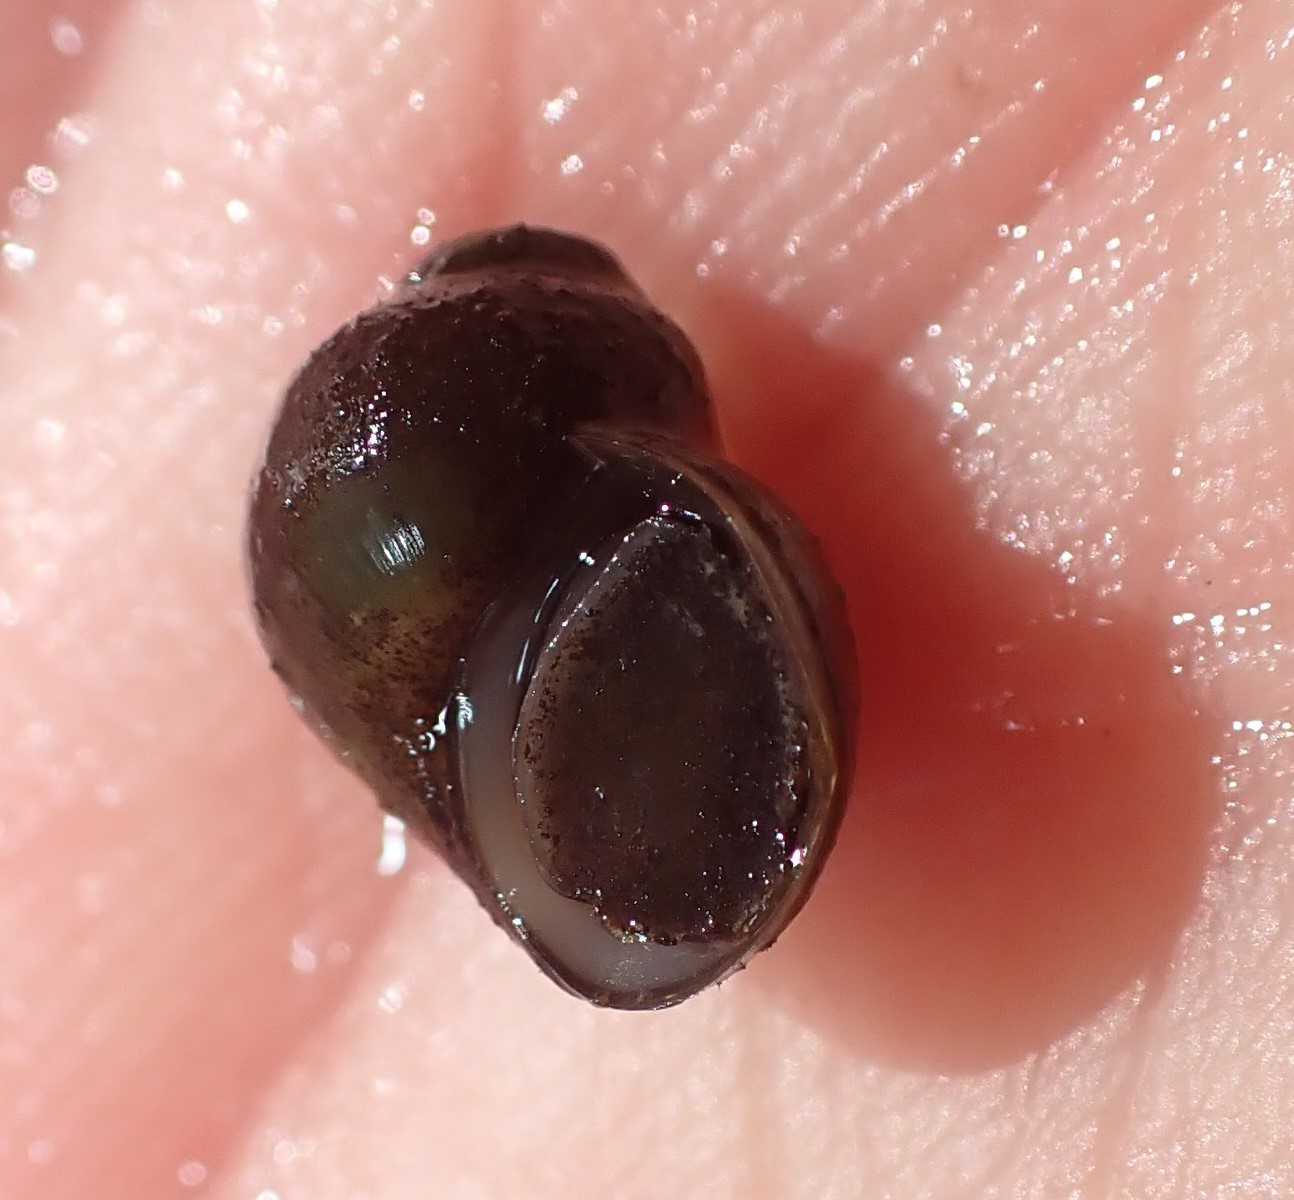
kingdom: Animalia
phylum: Mollusca
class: Gastropoda
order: Littorinimorpha
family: Lithoglyphidae
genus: Fluminicola
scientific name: Fluminicola virens
